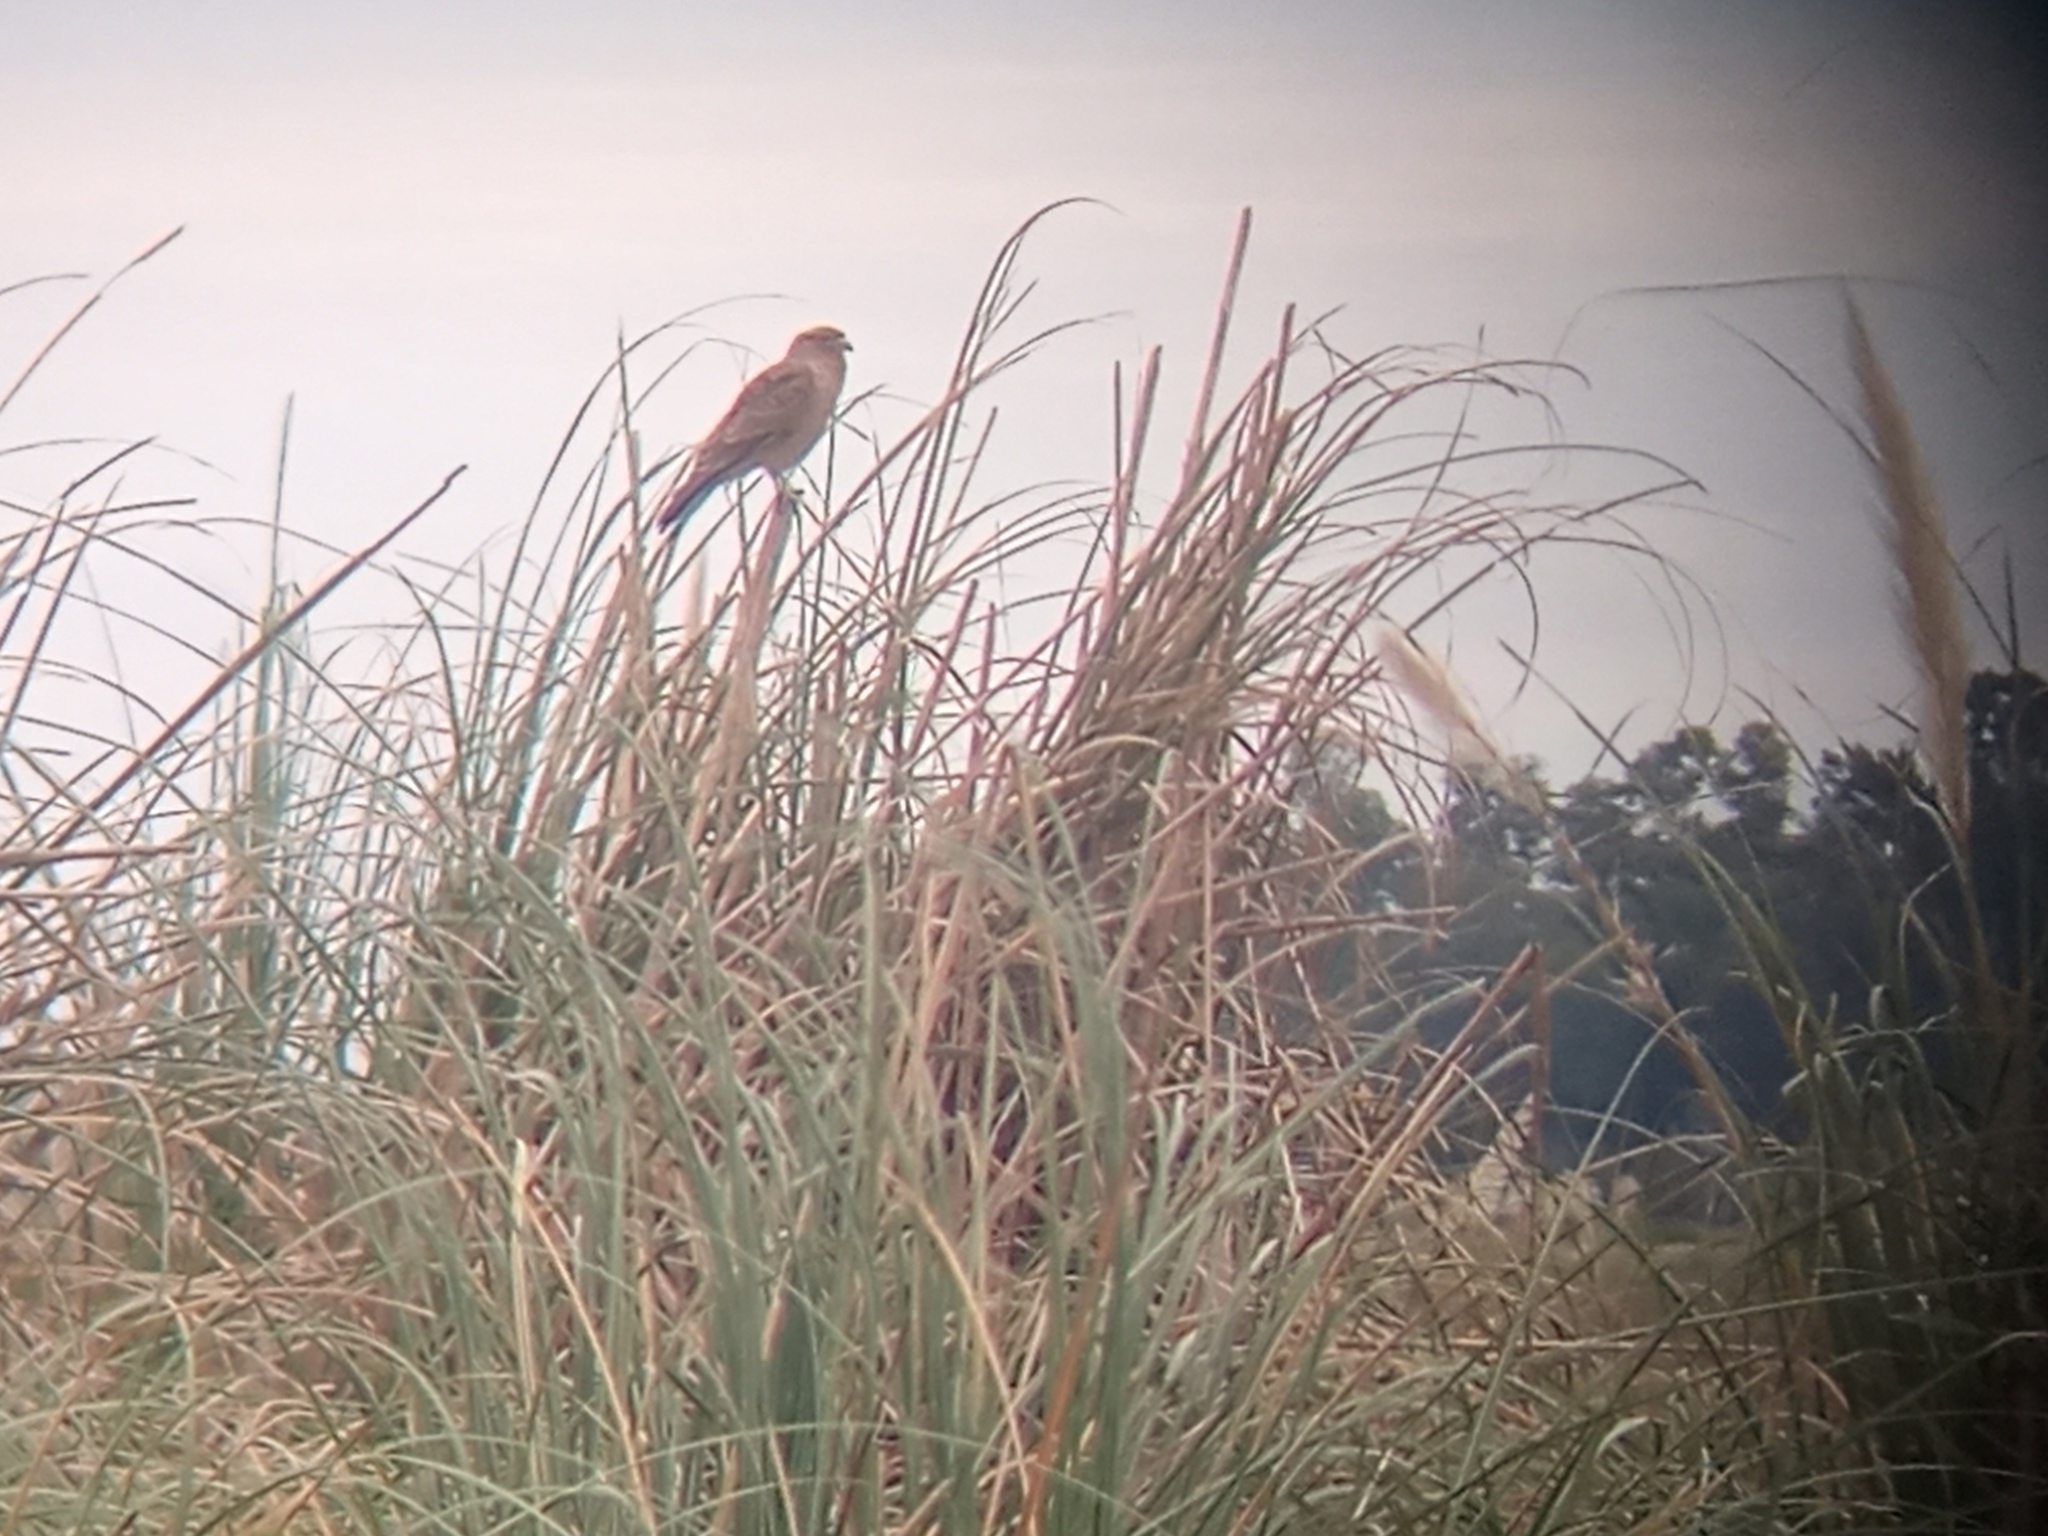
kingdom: Animalia
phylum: Chordata
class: Aves
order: Falconiformes
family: Falconidae
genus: Daptrius
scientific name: Daptrius
